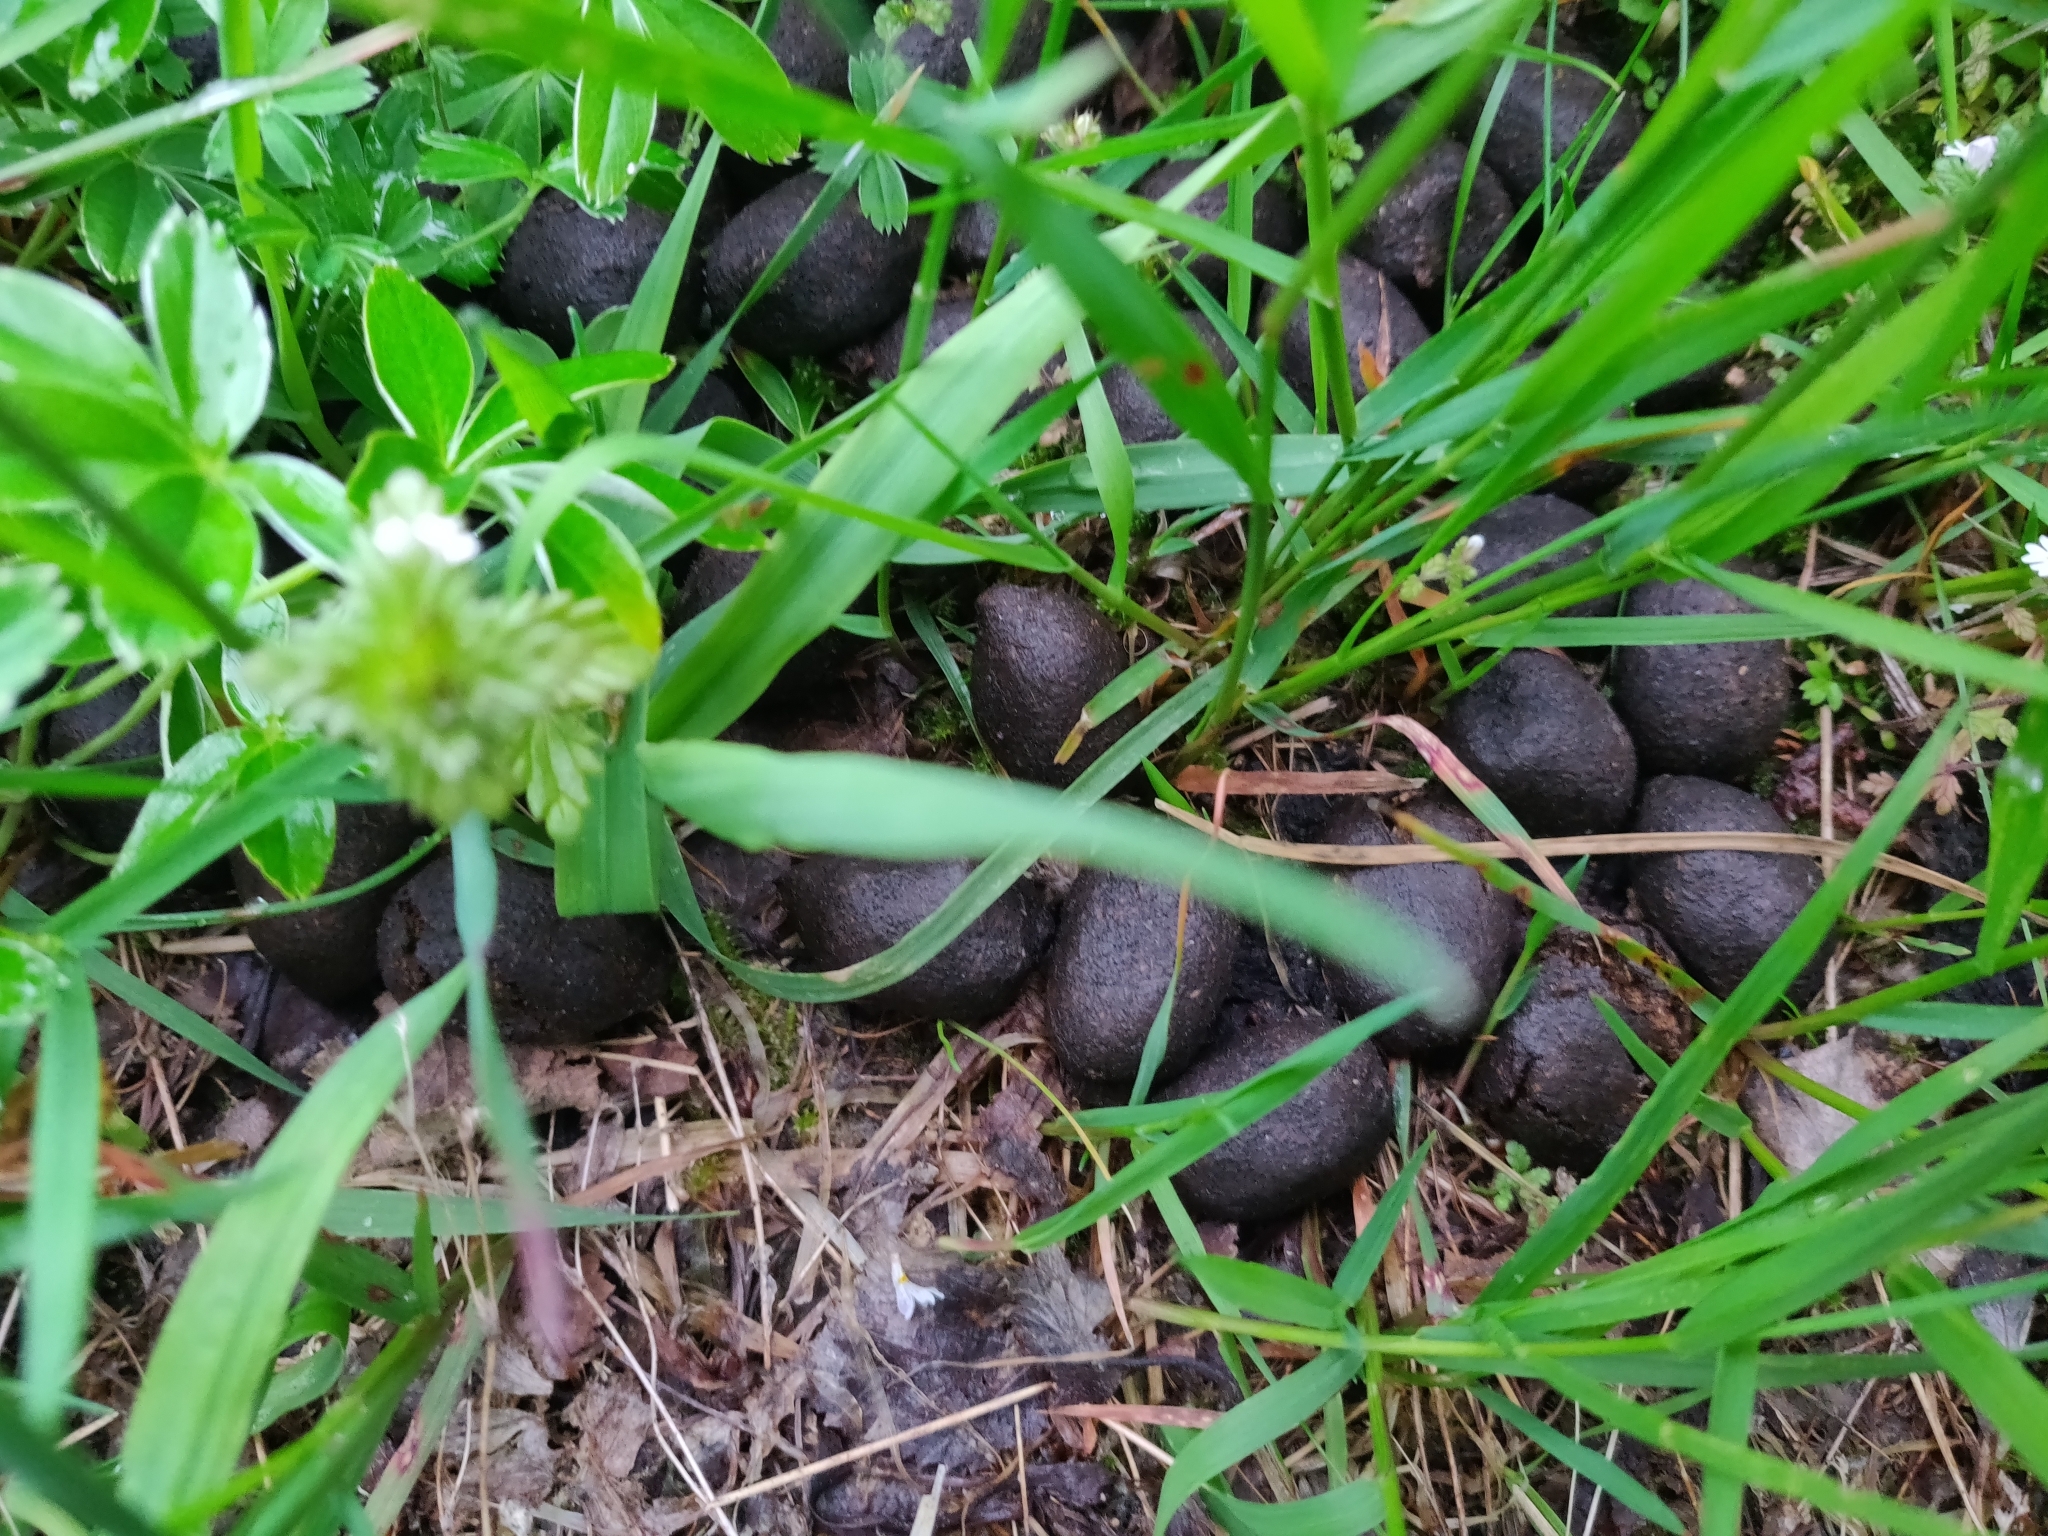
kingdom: Animalia
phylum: Chordata
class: Mammalia
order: Artiodactyla
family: Cervidae
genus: Alces
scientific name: Alces alces
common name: Moose
